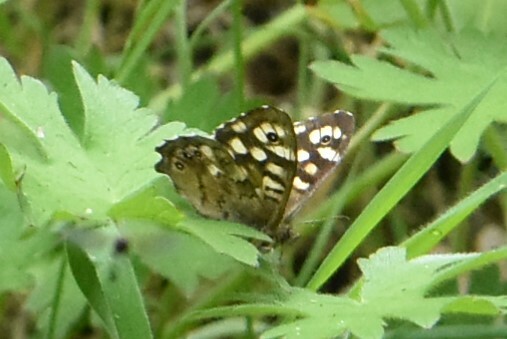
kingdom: Animalia
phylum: Arthropoda
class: Insecta
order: Lepidoptera
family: Nymphalidae
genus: Pararge
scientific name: Pararge aegeria
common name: Speckled wood
